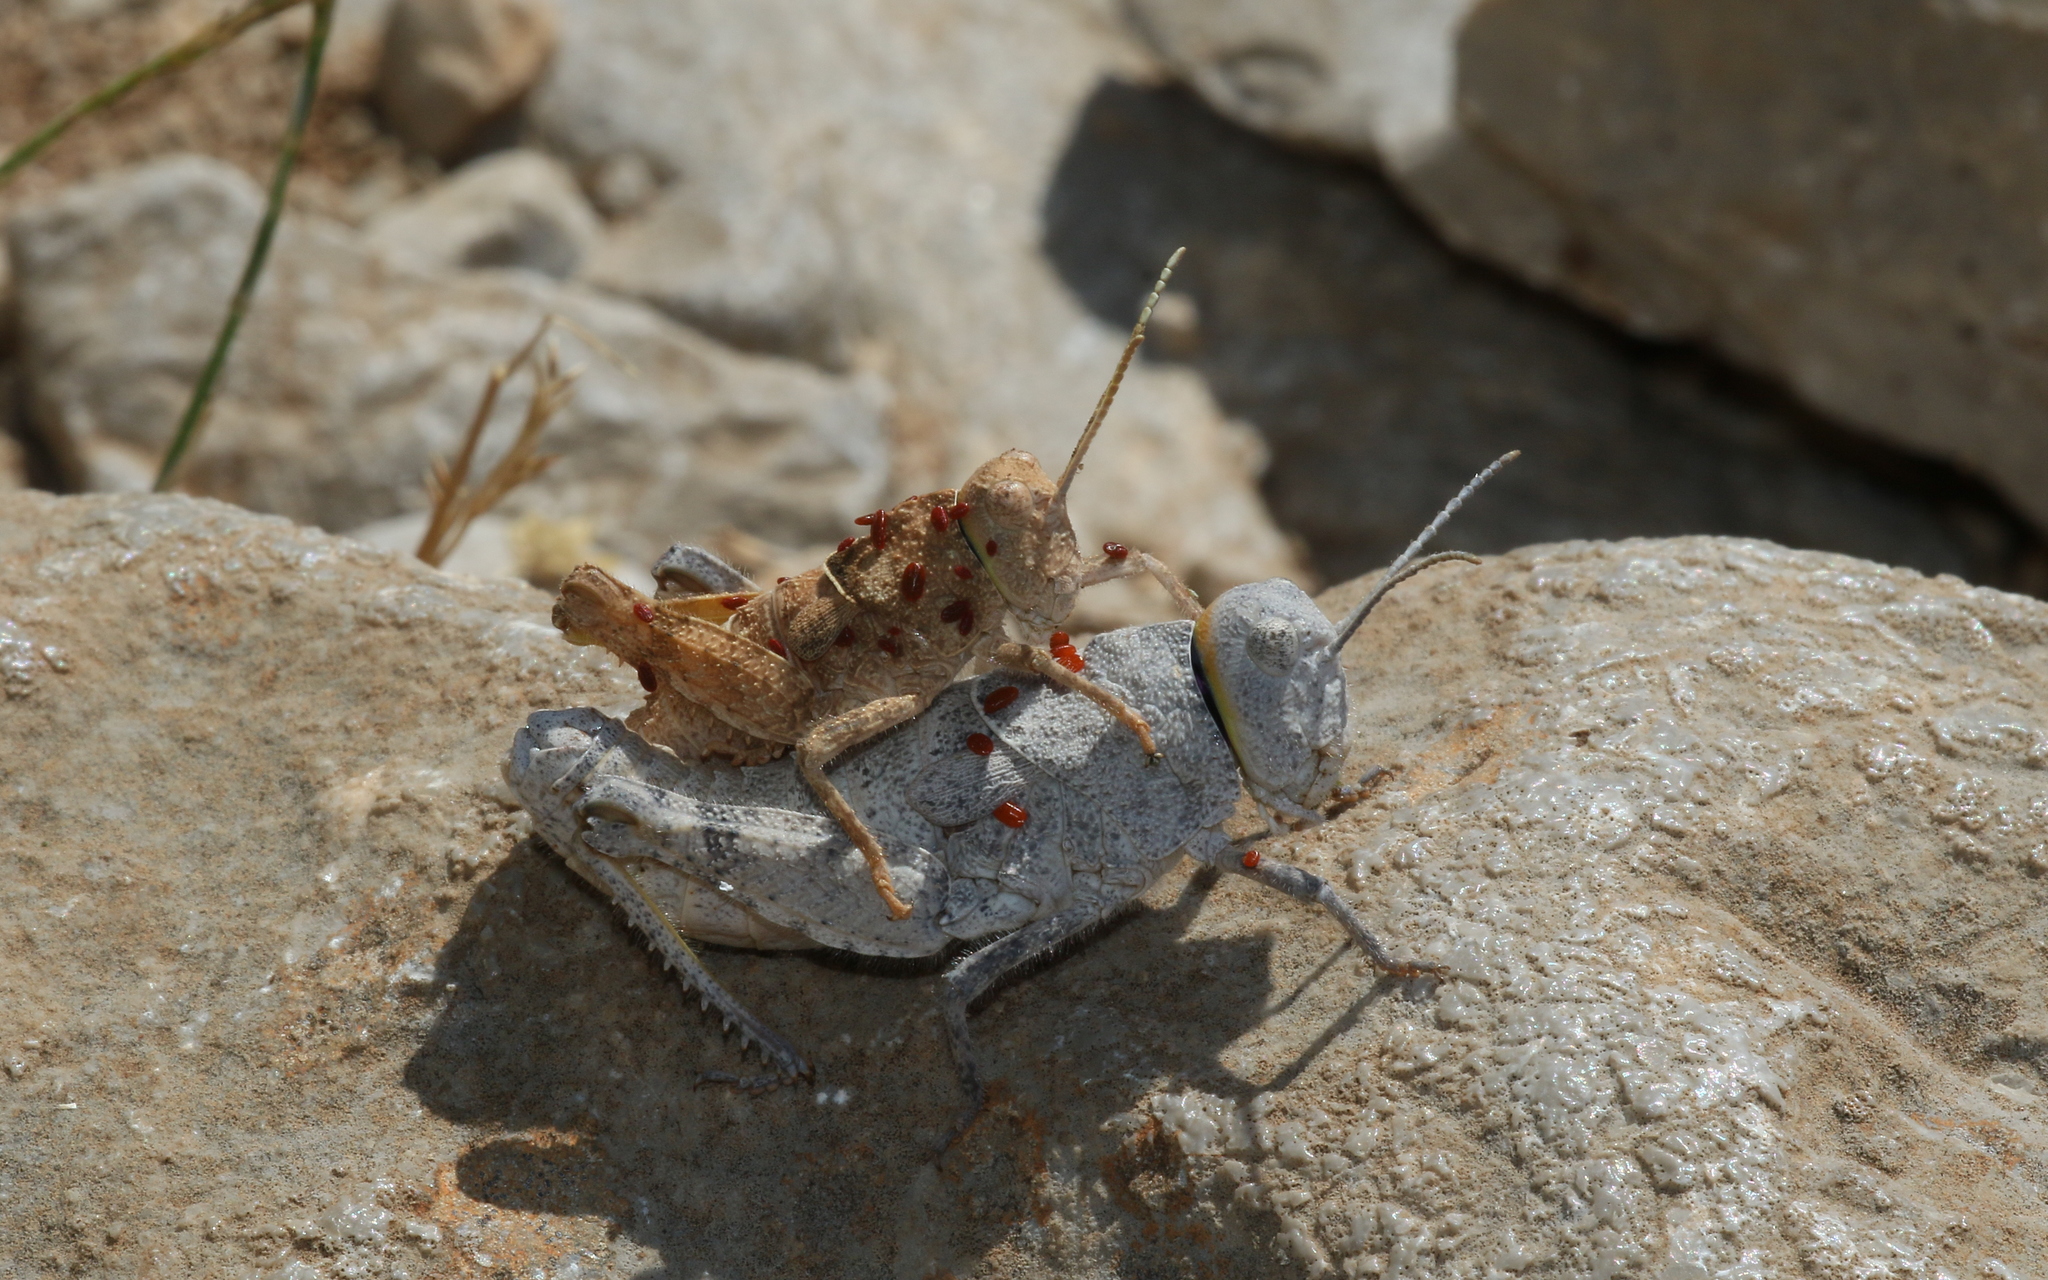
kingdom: Animalia
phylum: Arthropoda
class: Insecta
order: Orthoptera
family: Pamphagidae
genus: Glyphanus
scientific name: Glyphanus obtusus
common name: Parnassos stone grasshopper
